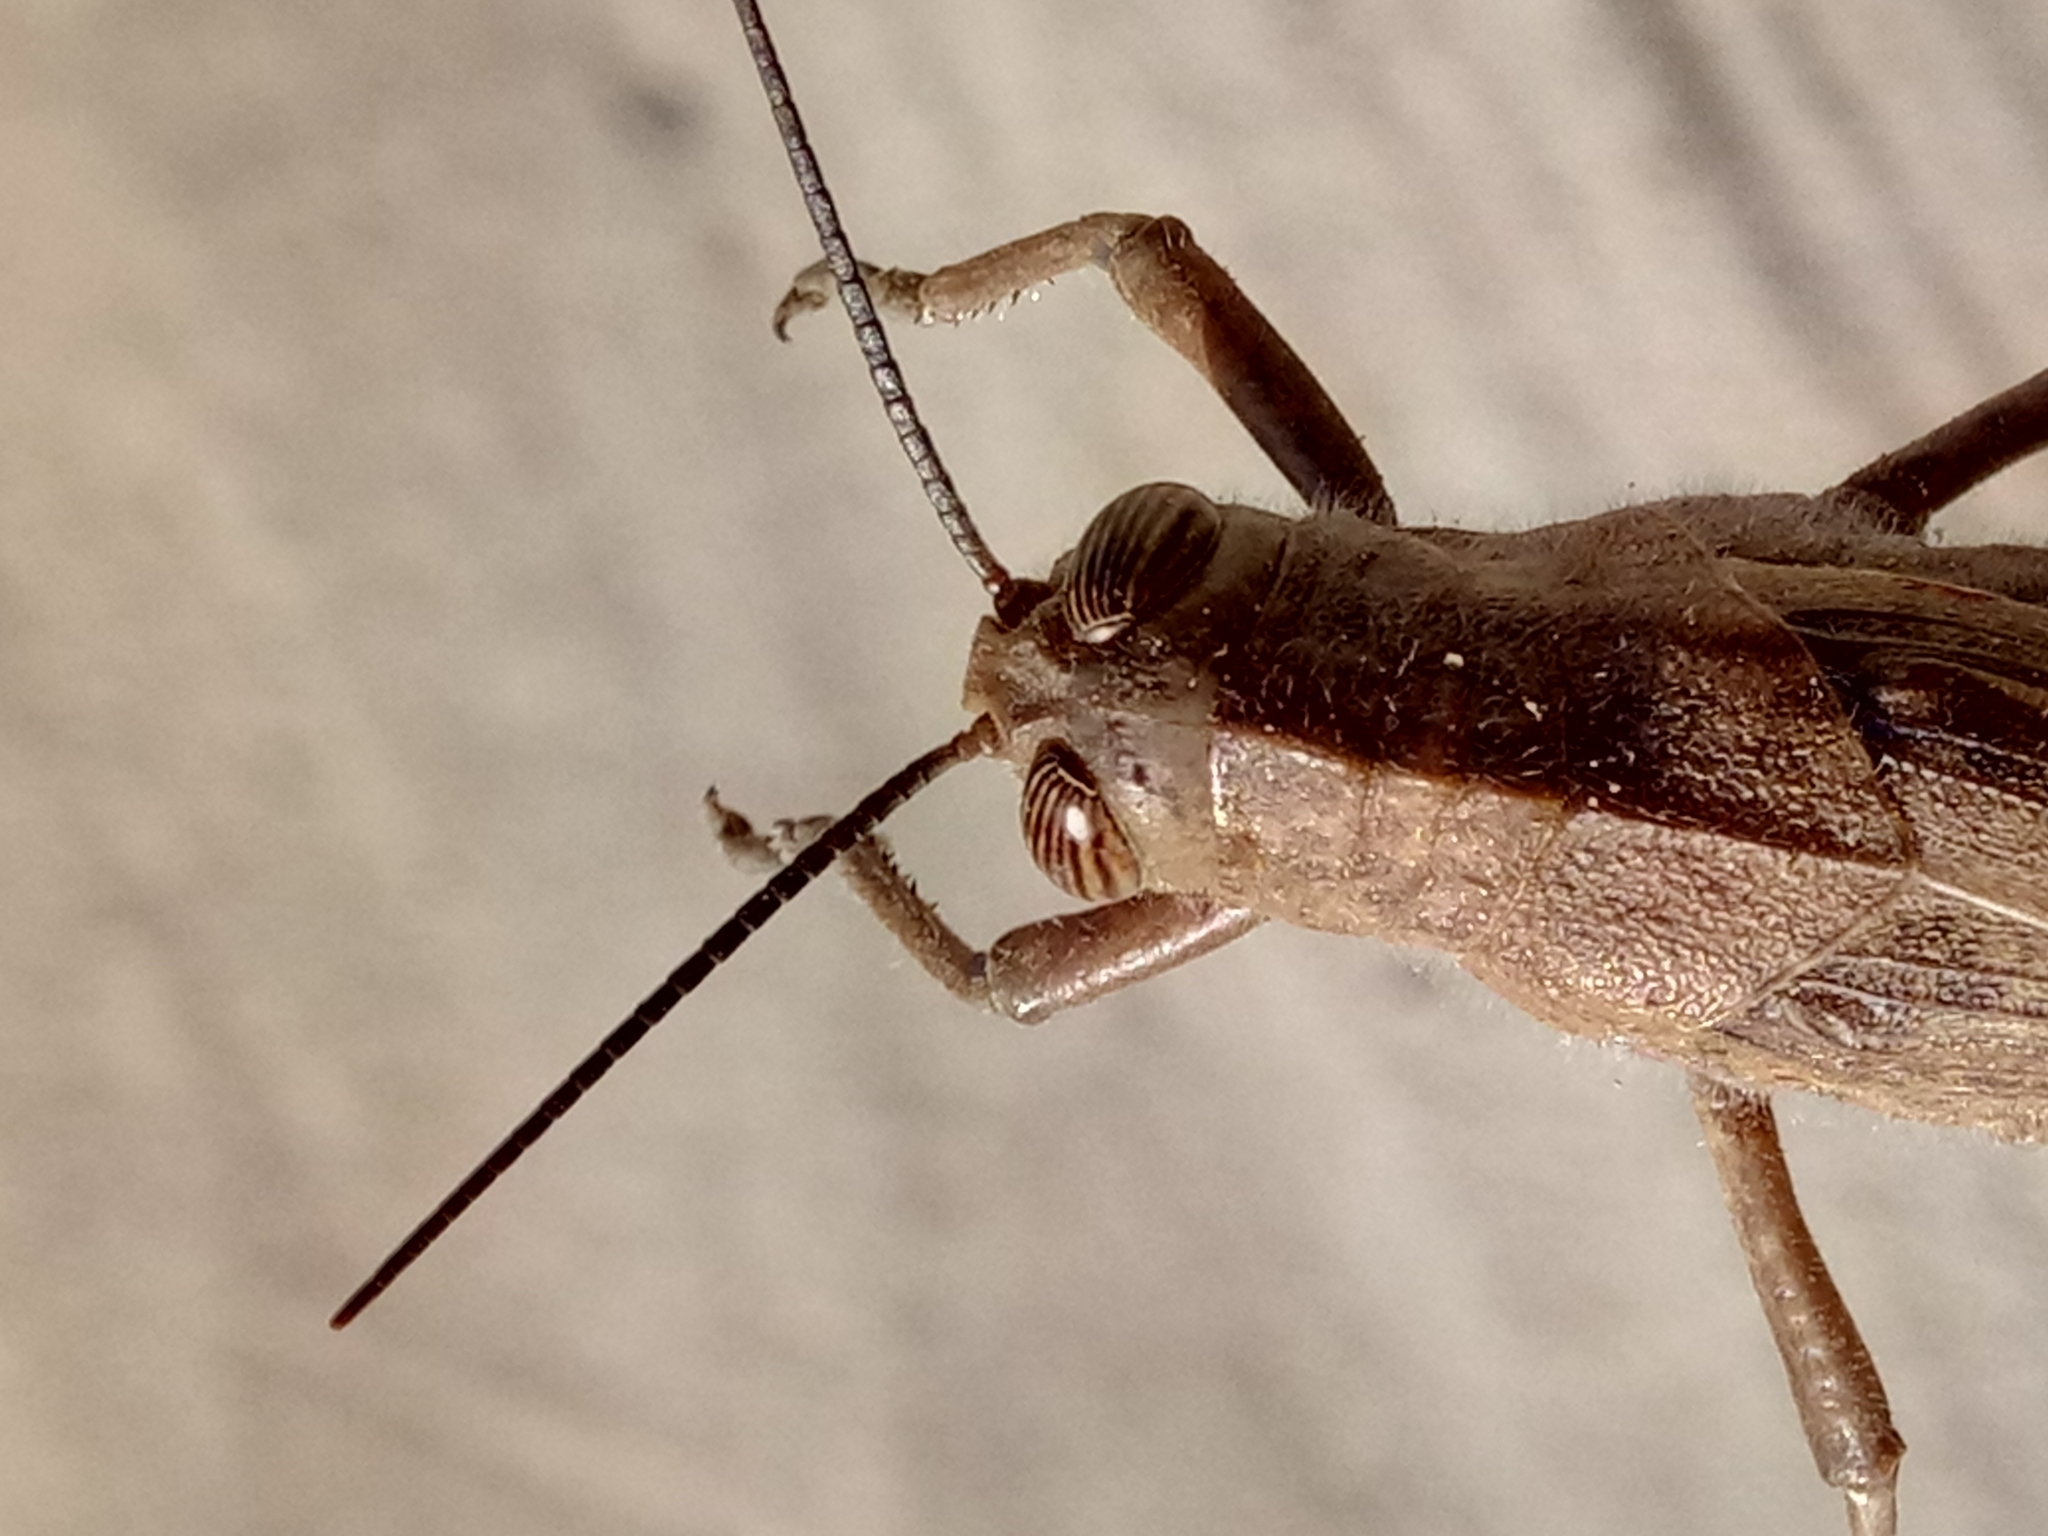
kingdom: Animalia
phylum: Arthropoda
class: Insecta
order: Orthoptera
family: Acrididae
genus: Anacridium
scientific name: Anacridium aegyptium
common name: Egyptian grasshopper
